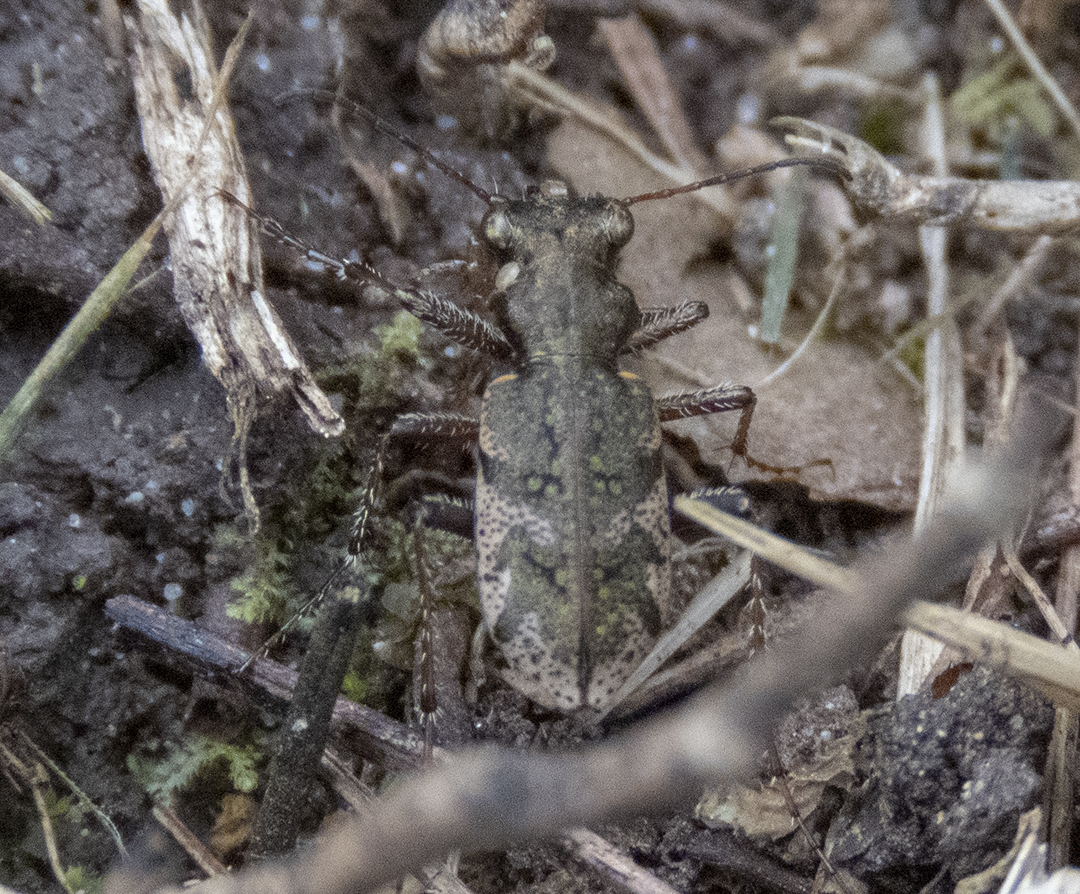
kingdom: Animalia
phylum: Arthropoda
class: Insecta
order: Coleoptera
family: Carabidae
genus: Neocicindela
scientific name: Neocicindela parryi
